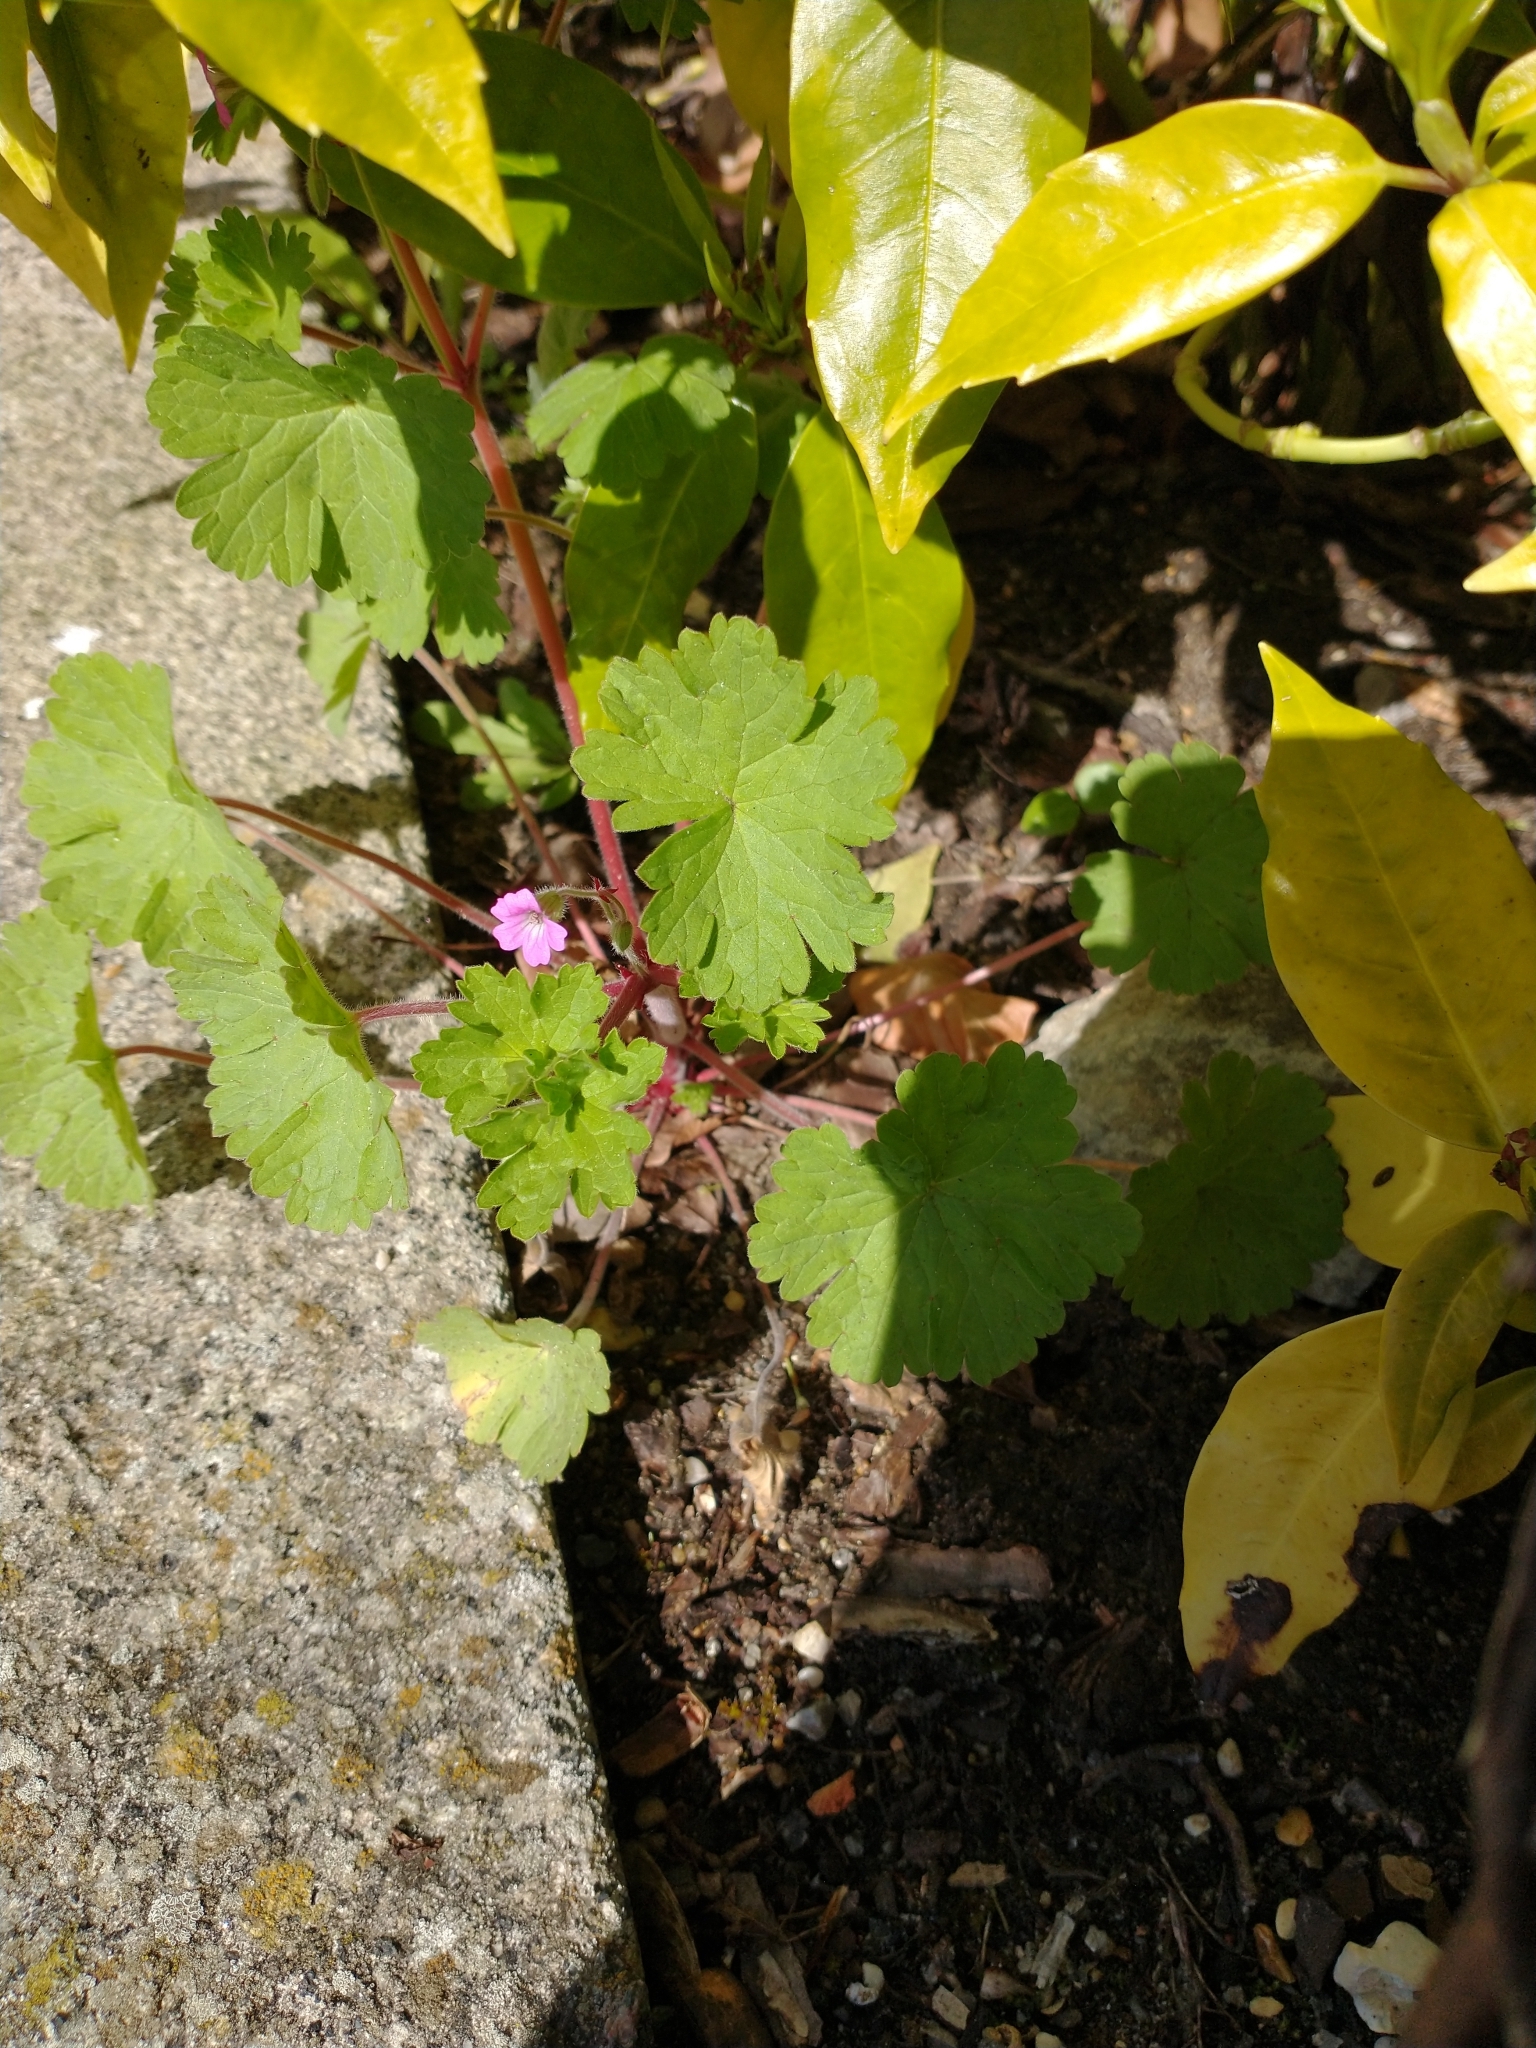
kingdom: Plantae
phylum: Tracheophyta
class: Magnoliopsida
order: Geraniales
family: Geraniaceae
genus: Geranium
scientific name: Geranium rotundifolium
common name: Round-leaved crane's-bill
